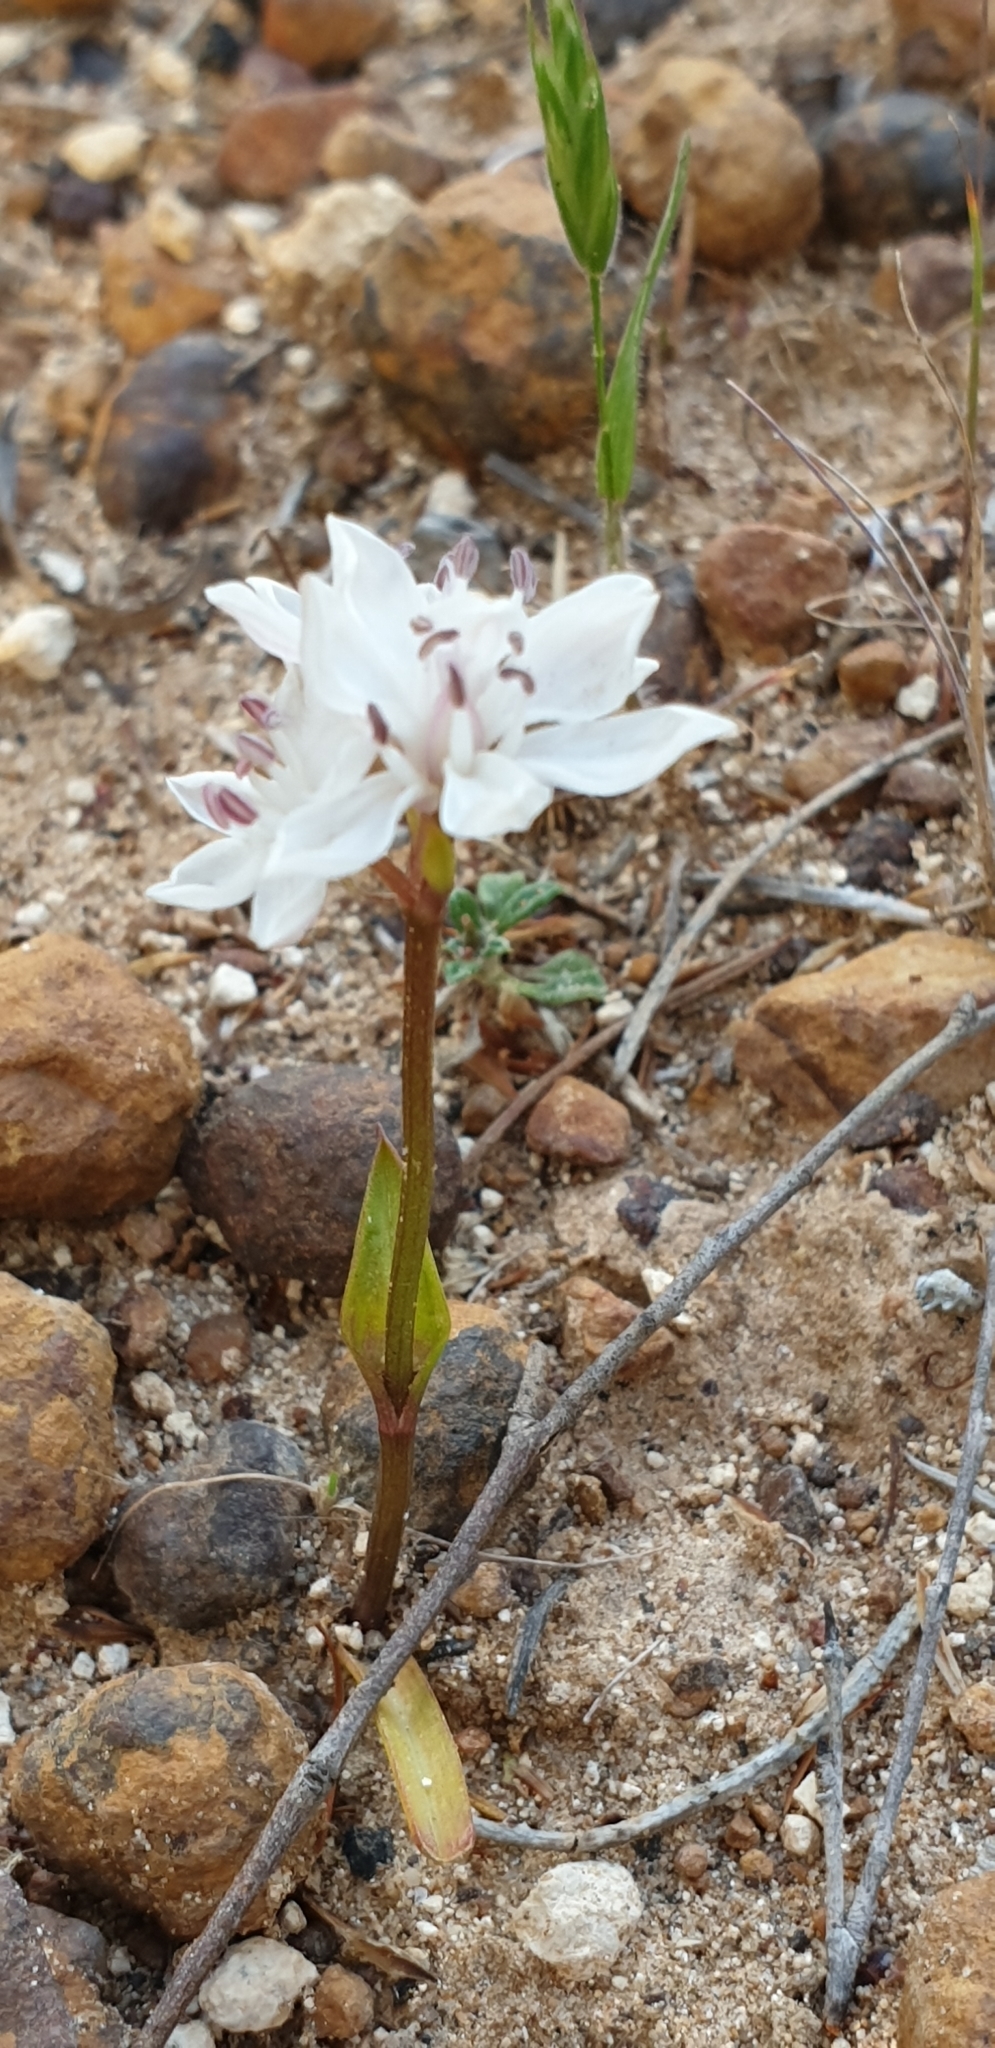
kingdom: Plantae
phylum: Tracheophyta
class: Liliopsida
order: Liliales
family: Colchicaceae
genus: Burchardia
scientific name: Burchardia umbellata
